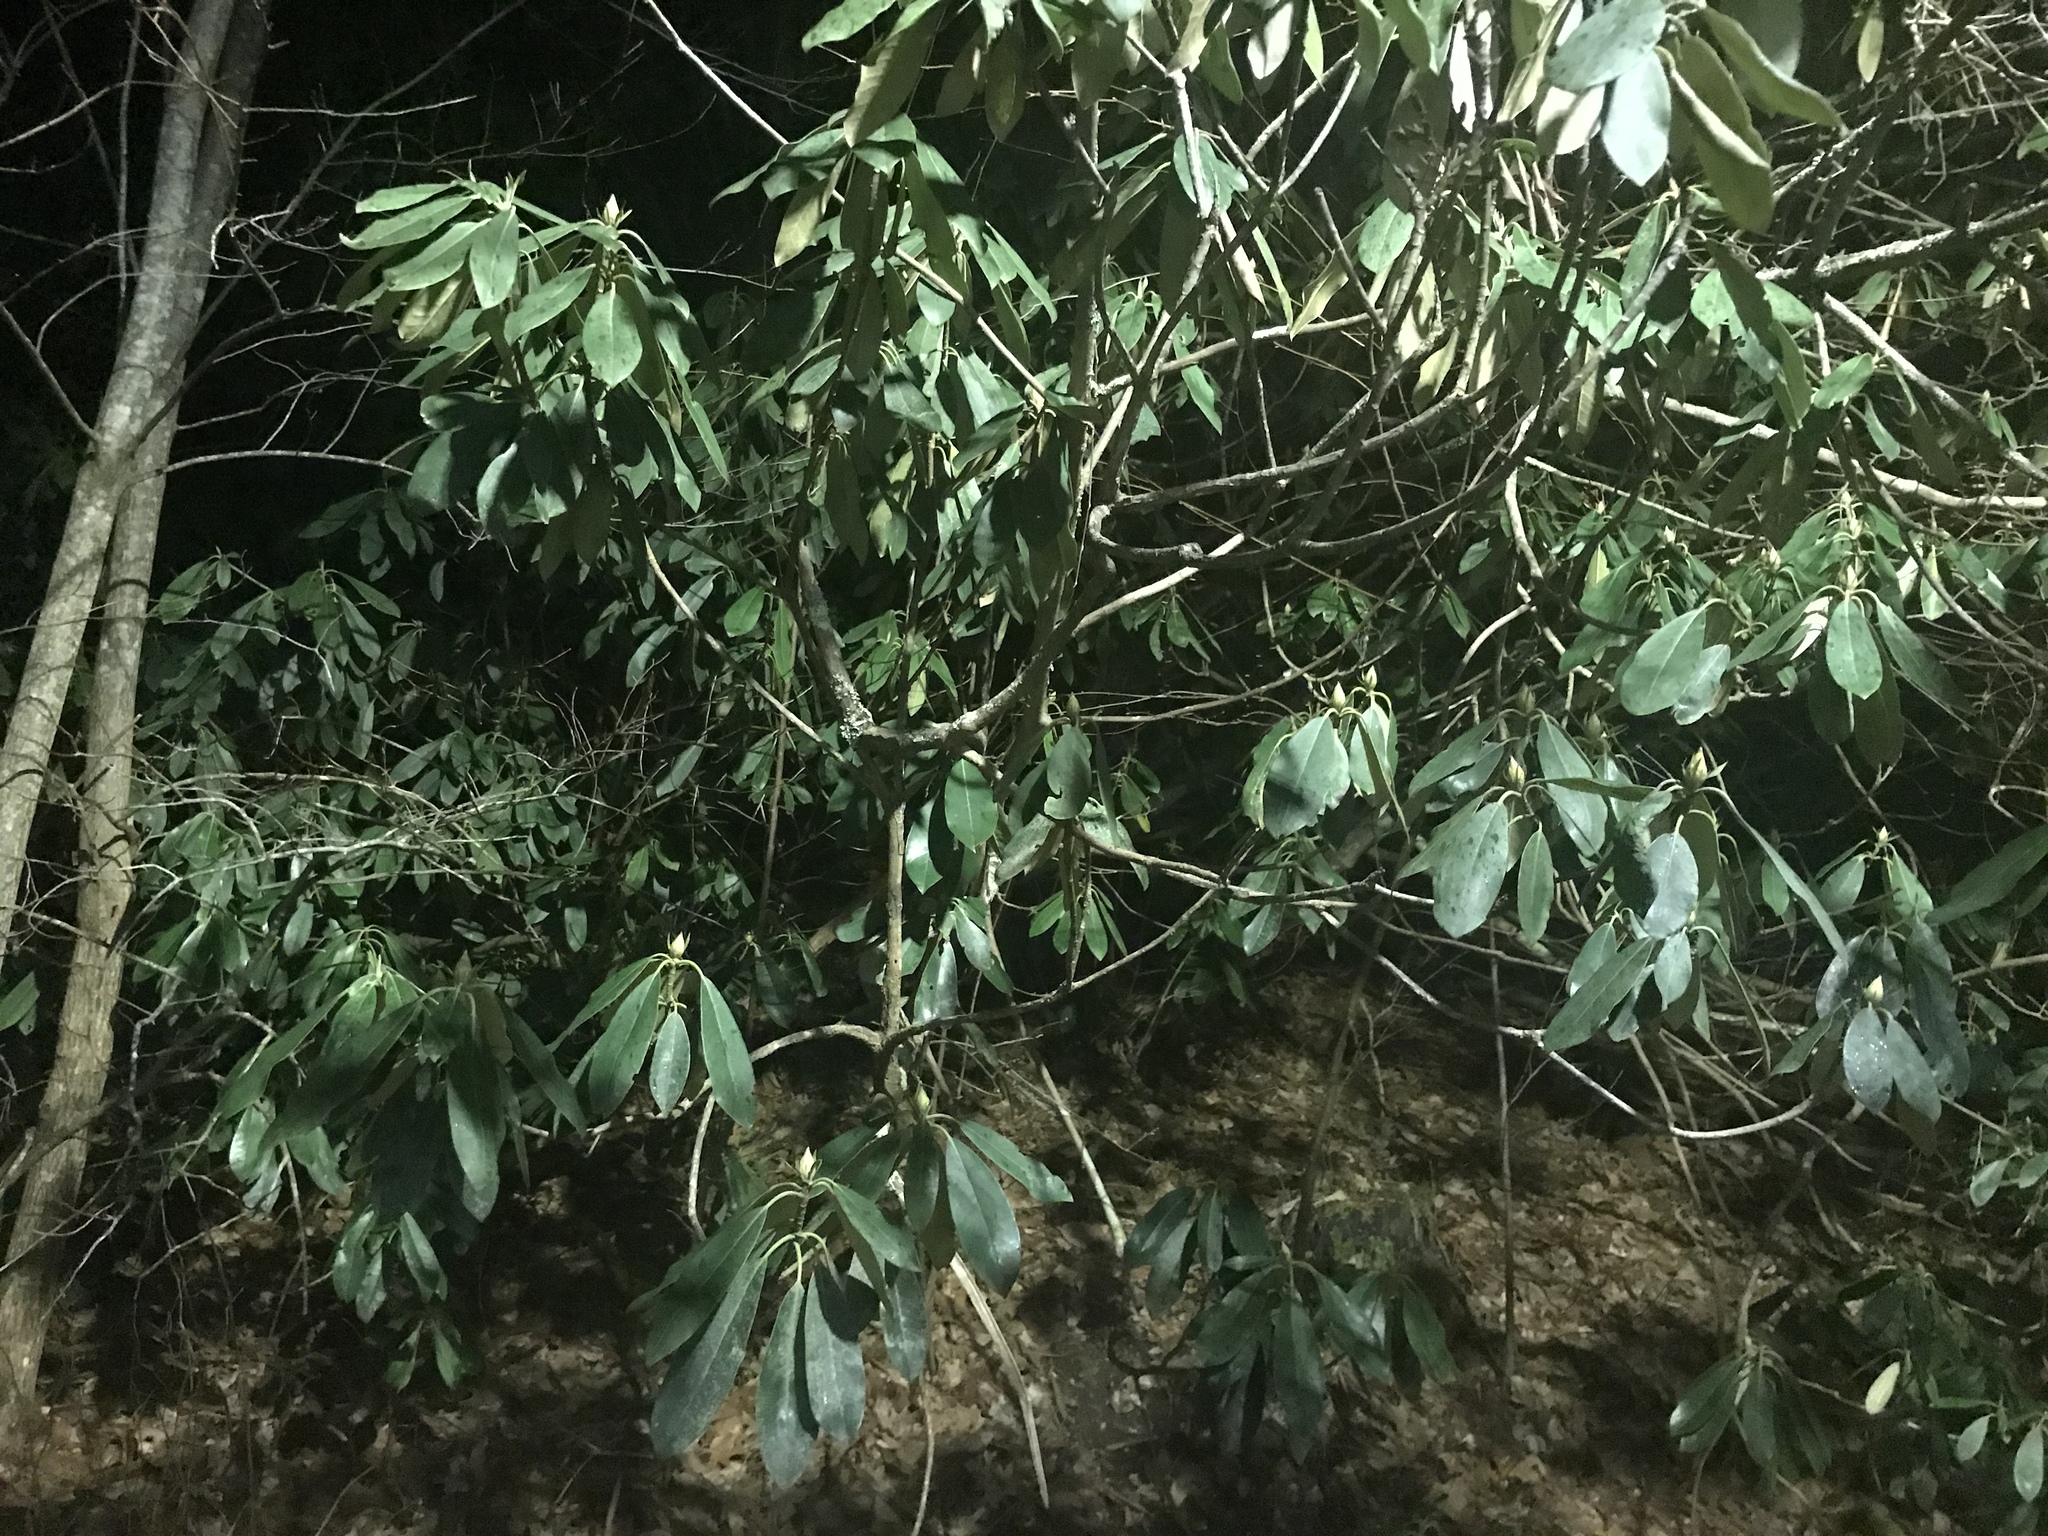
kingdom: Plantae
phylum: Tracheophyta
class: Magnoliopsida
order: Ericales
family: Ericaceae
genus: Rhododendron
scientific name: Rhododendron maximum
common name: Great rhododendron
